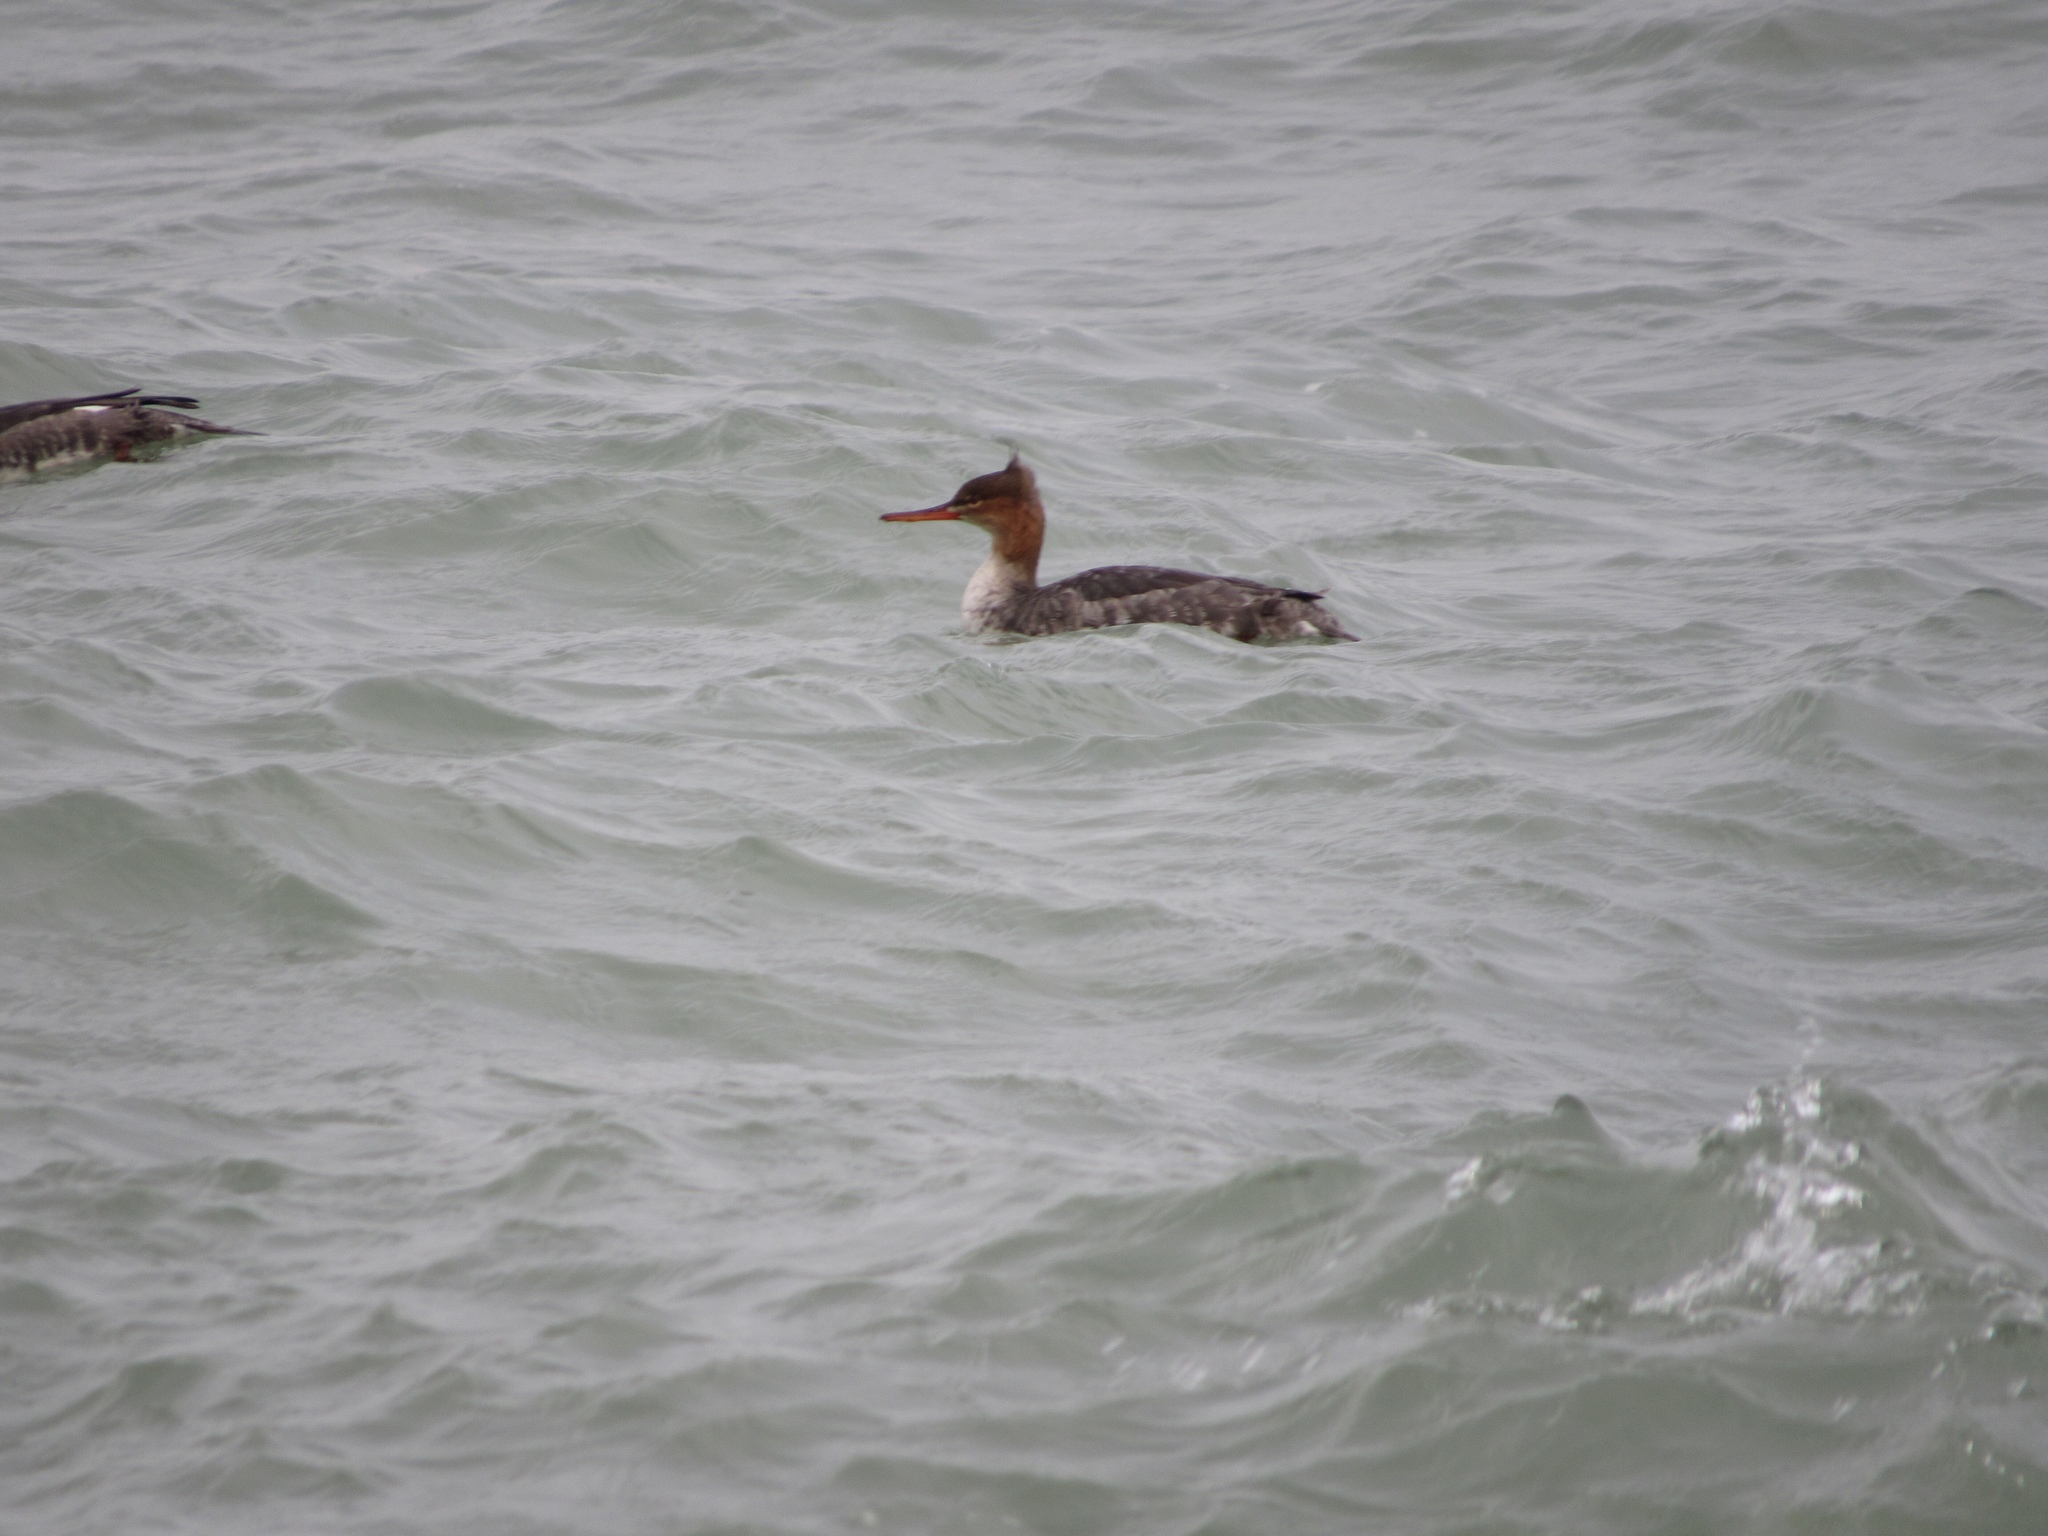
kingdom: Animalia
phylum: Chordata
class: Aves
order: Anseriformes
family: Anatidae
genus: Mergus
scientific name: Mergus serrator
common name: Red-breasted merganser
